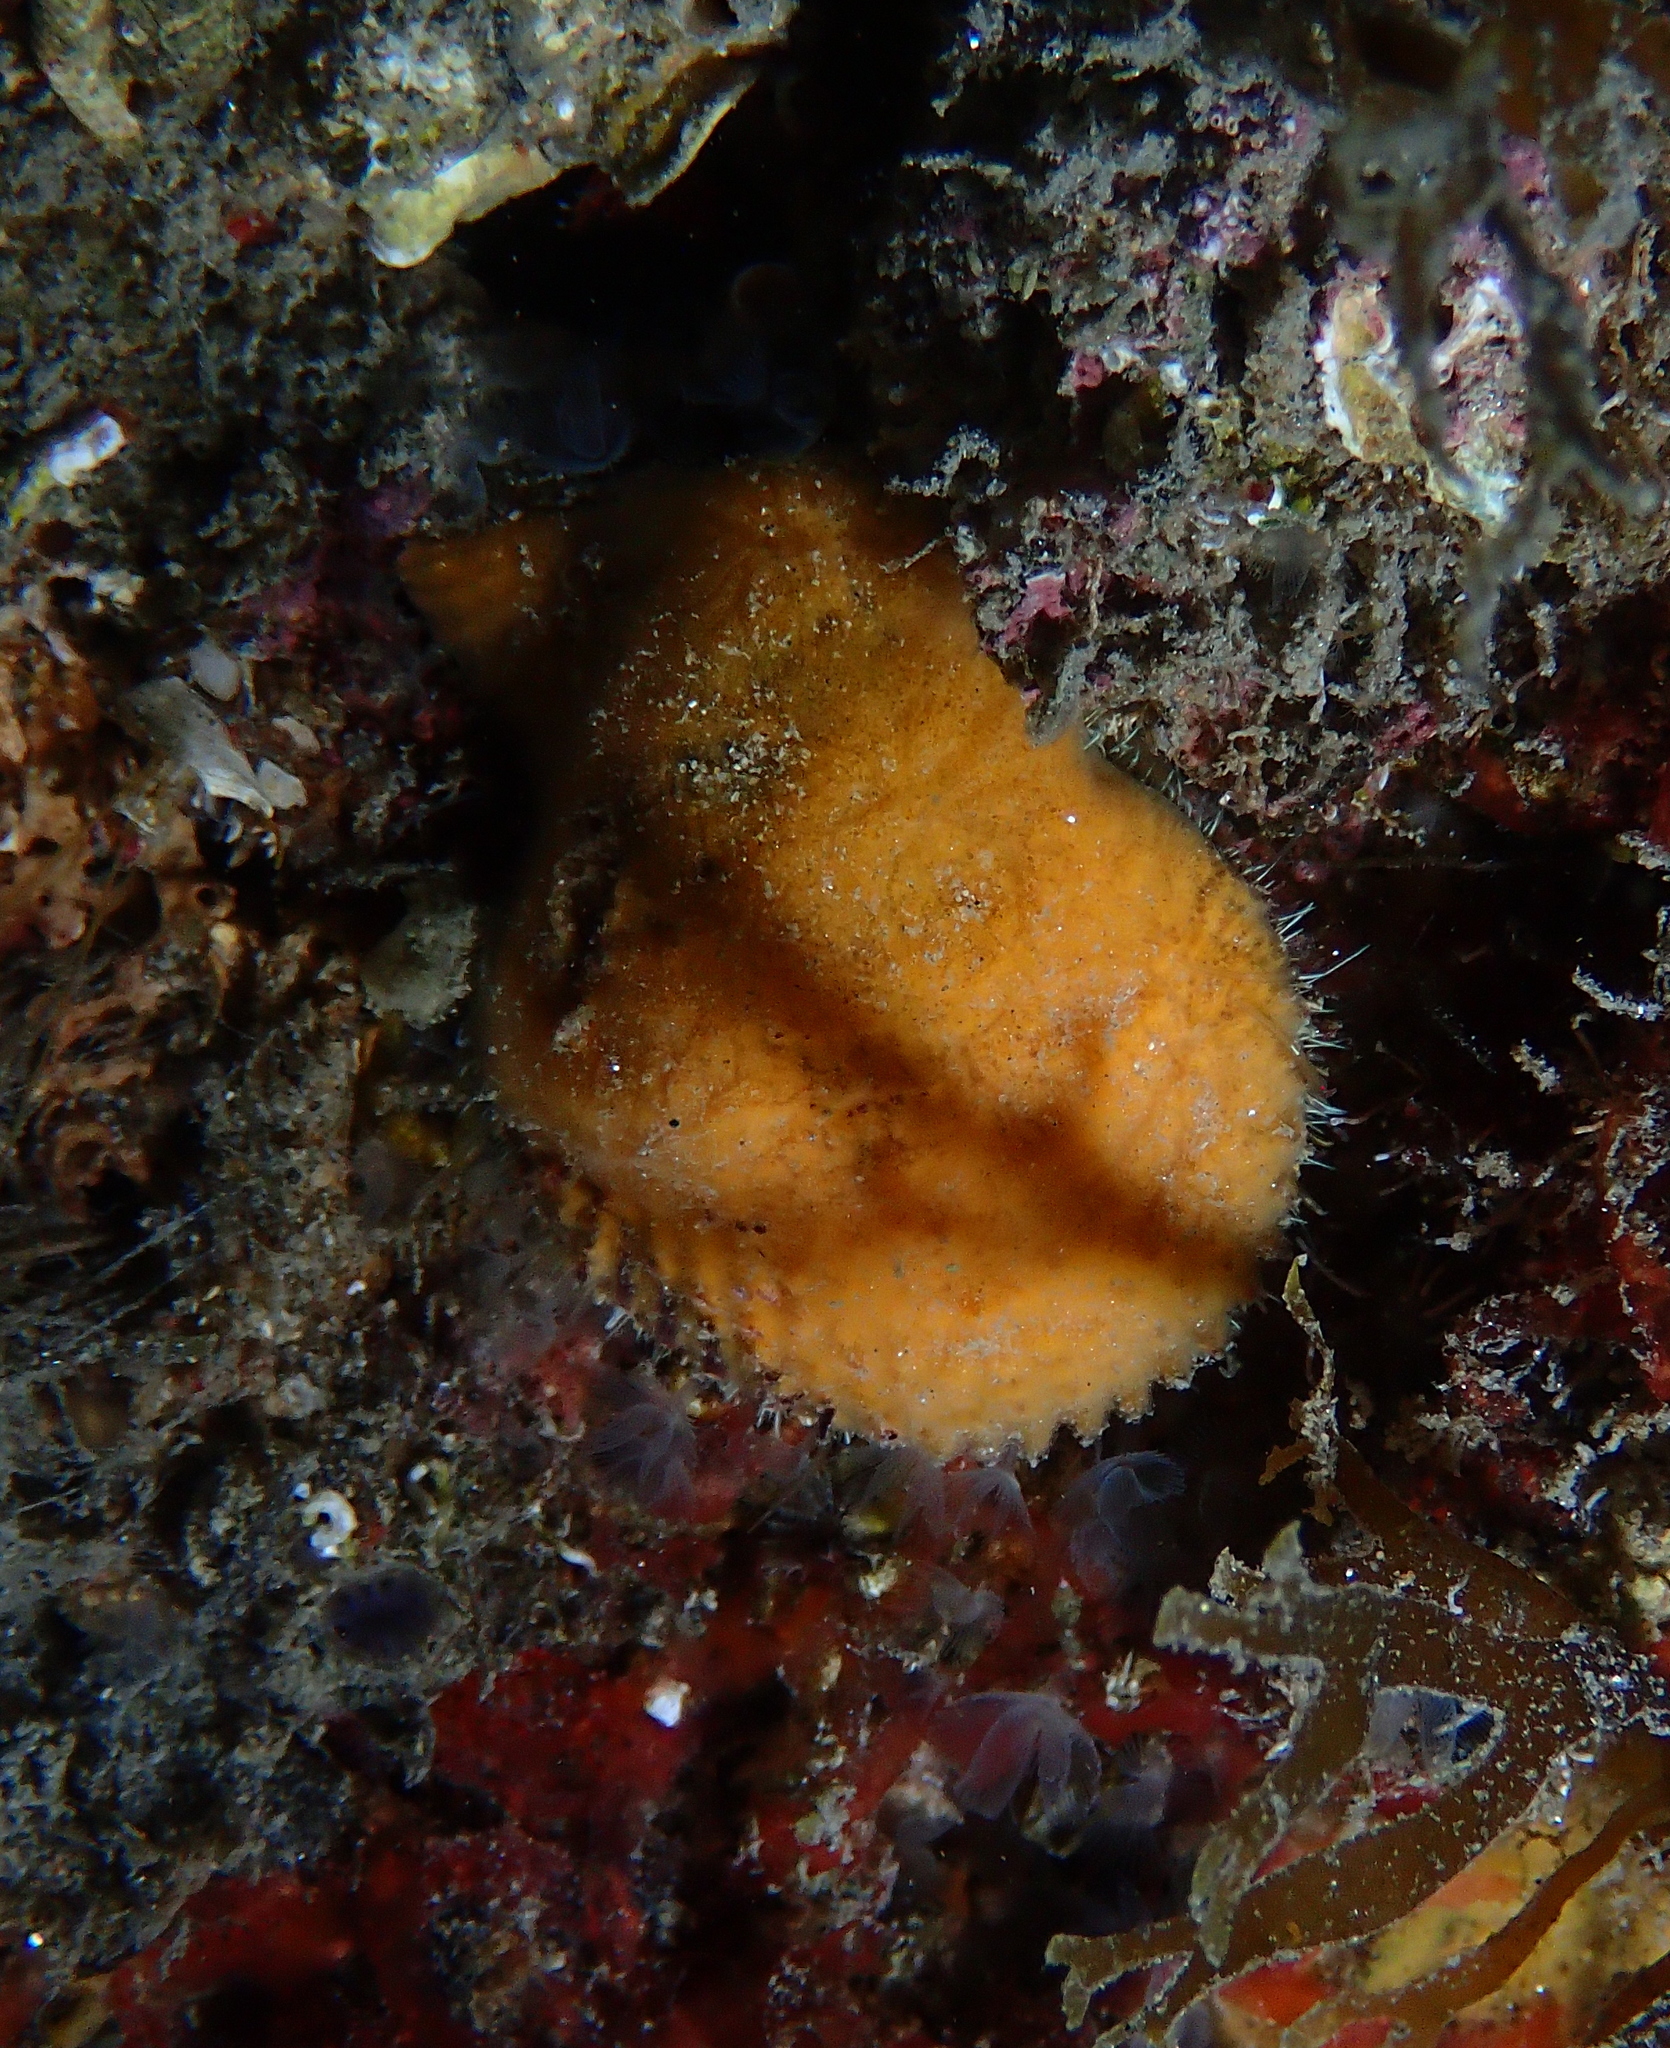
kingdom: Animalia
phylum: Mollusca
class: Bivalvia
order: Pectinida
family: Pectinidae
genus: Mimachlamys
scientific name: Mimachlamys varia
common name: Variegated scallop
